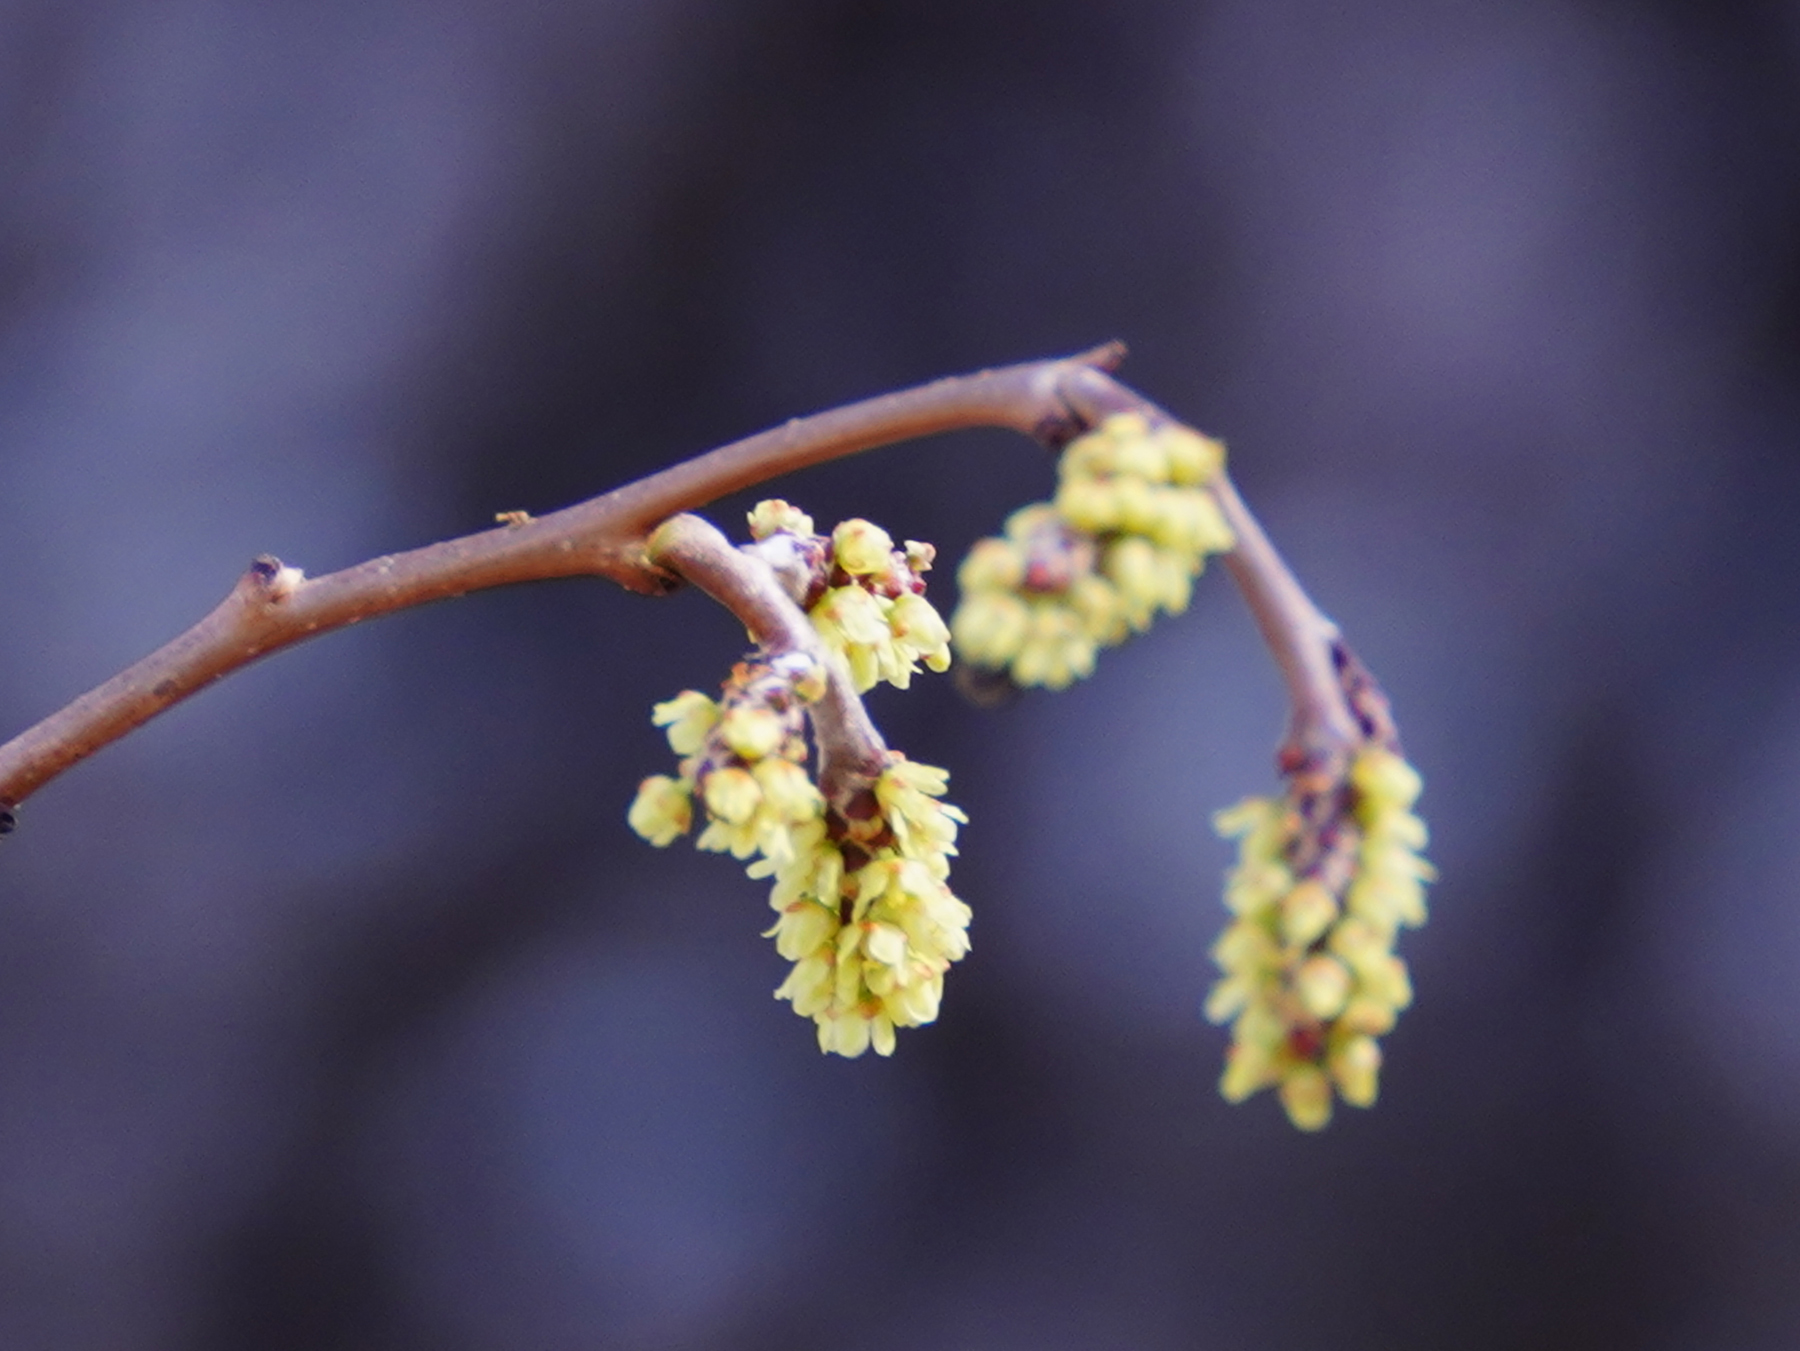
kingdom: Plantae
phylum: Tracheophyta
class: Magnoliopsida
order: Sapindales
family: Anacardiaceae
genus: Rhus
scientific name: Rhus aromatica
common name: Aromatic sumac
